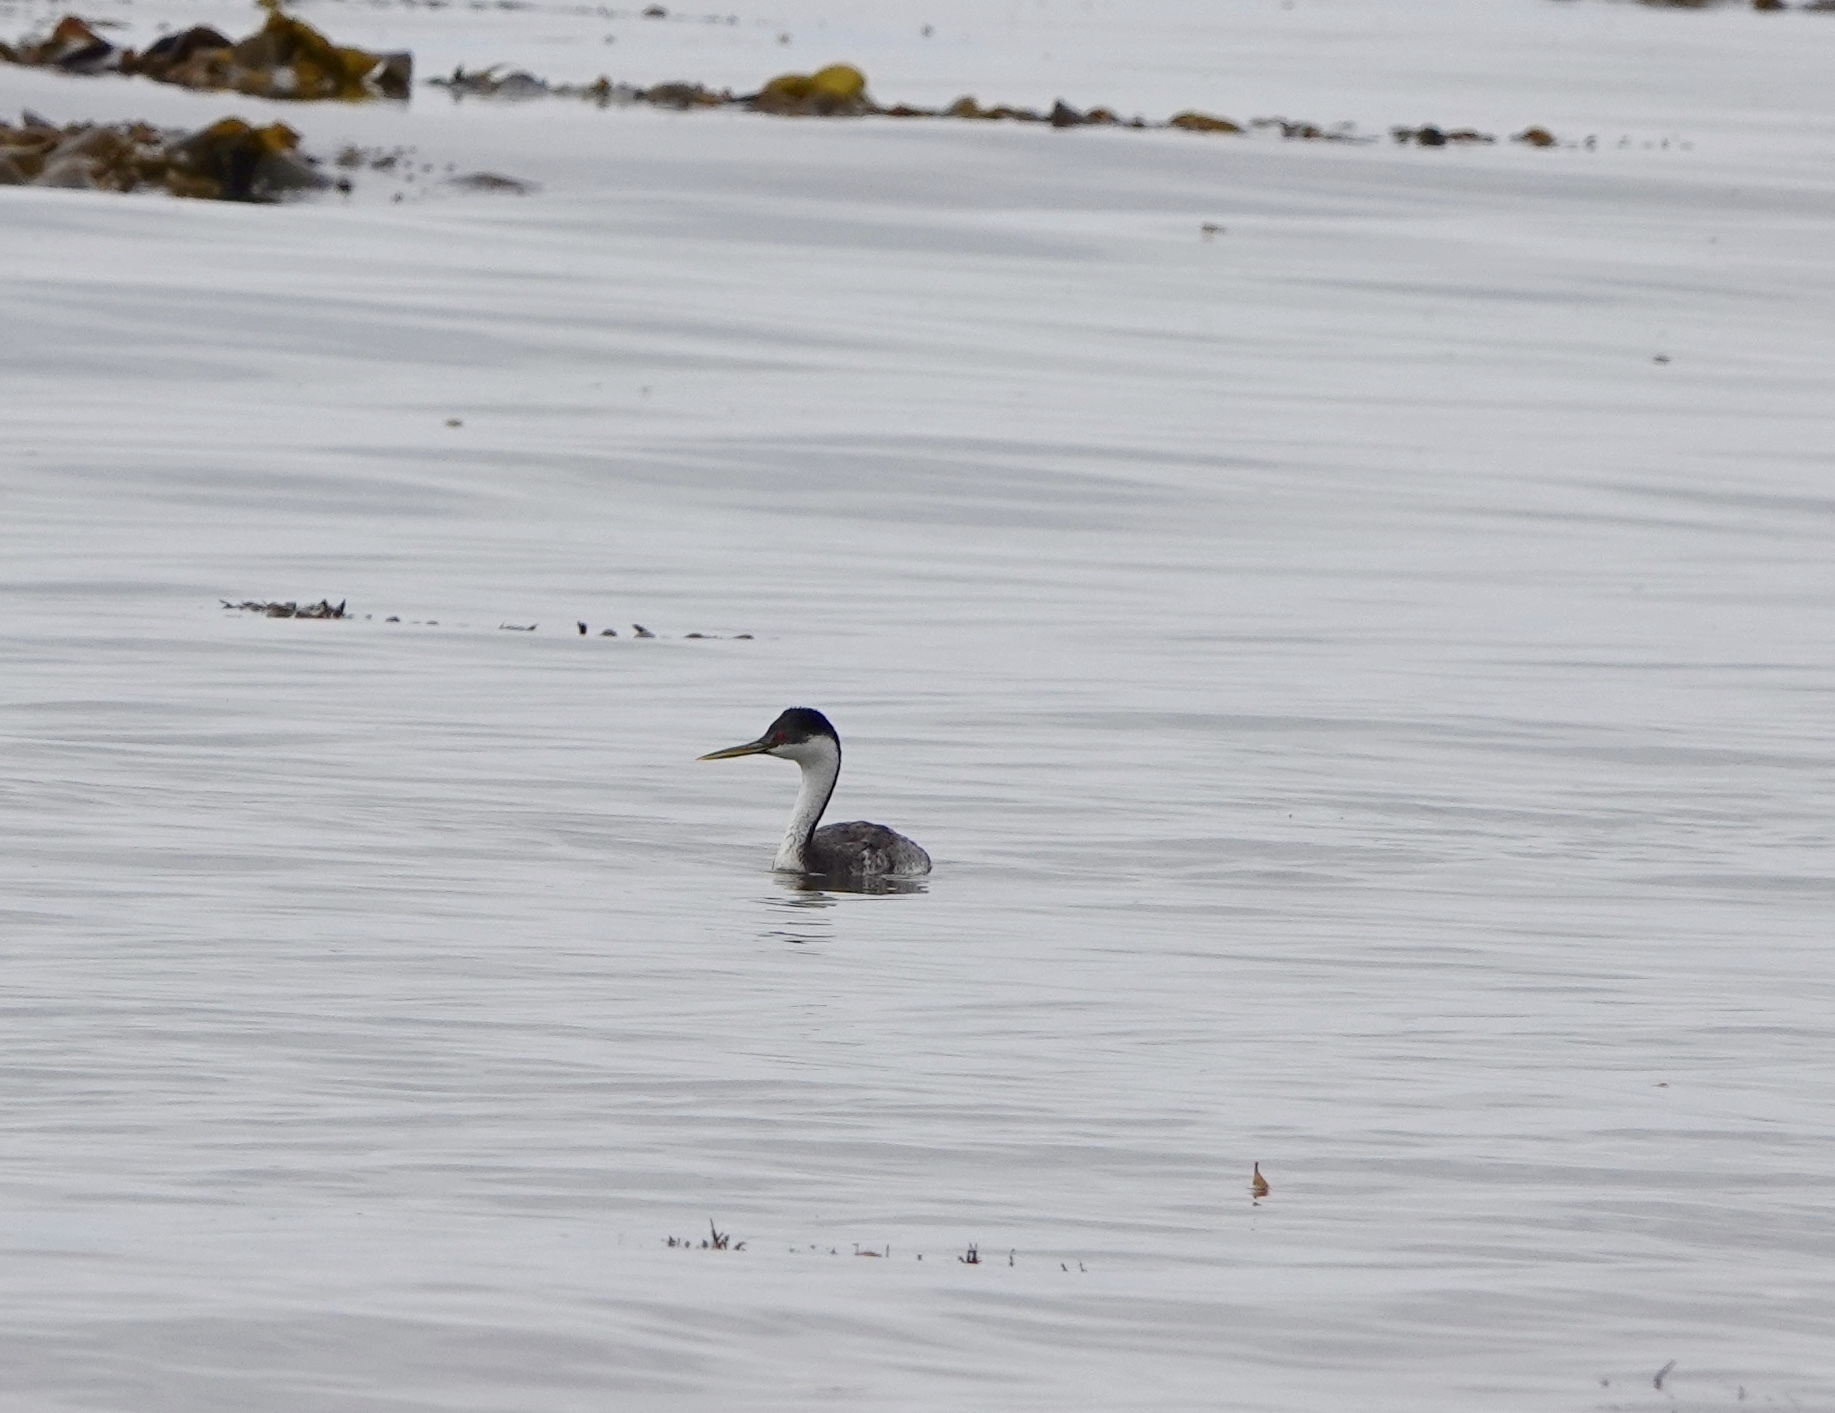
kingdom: Animalia
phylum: Chordata
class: Aves
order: Podicipediformes
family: Podicipedidae
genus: Aechmophorus
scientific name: Aechmophorus occidentalis
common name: Western grebe
